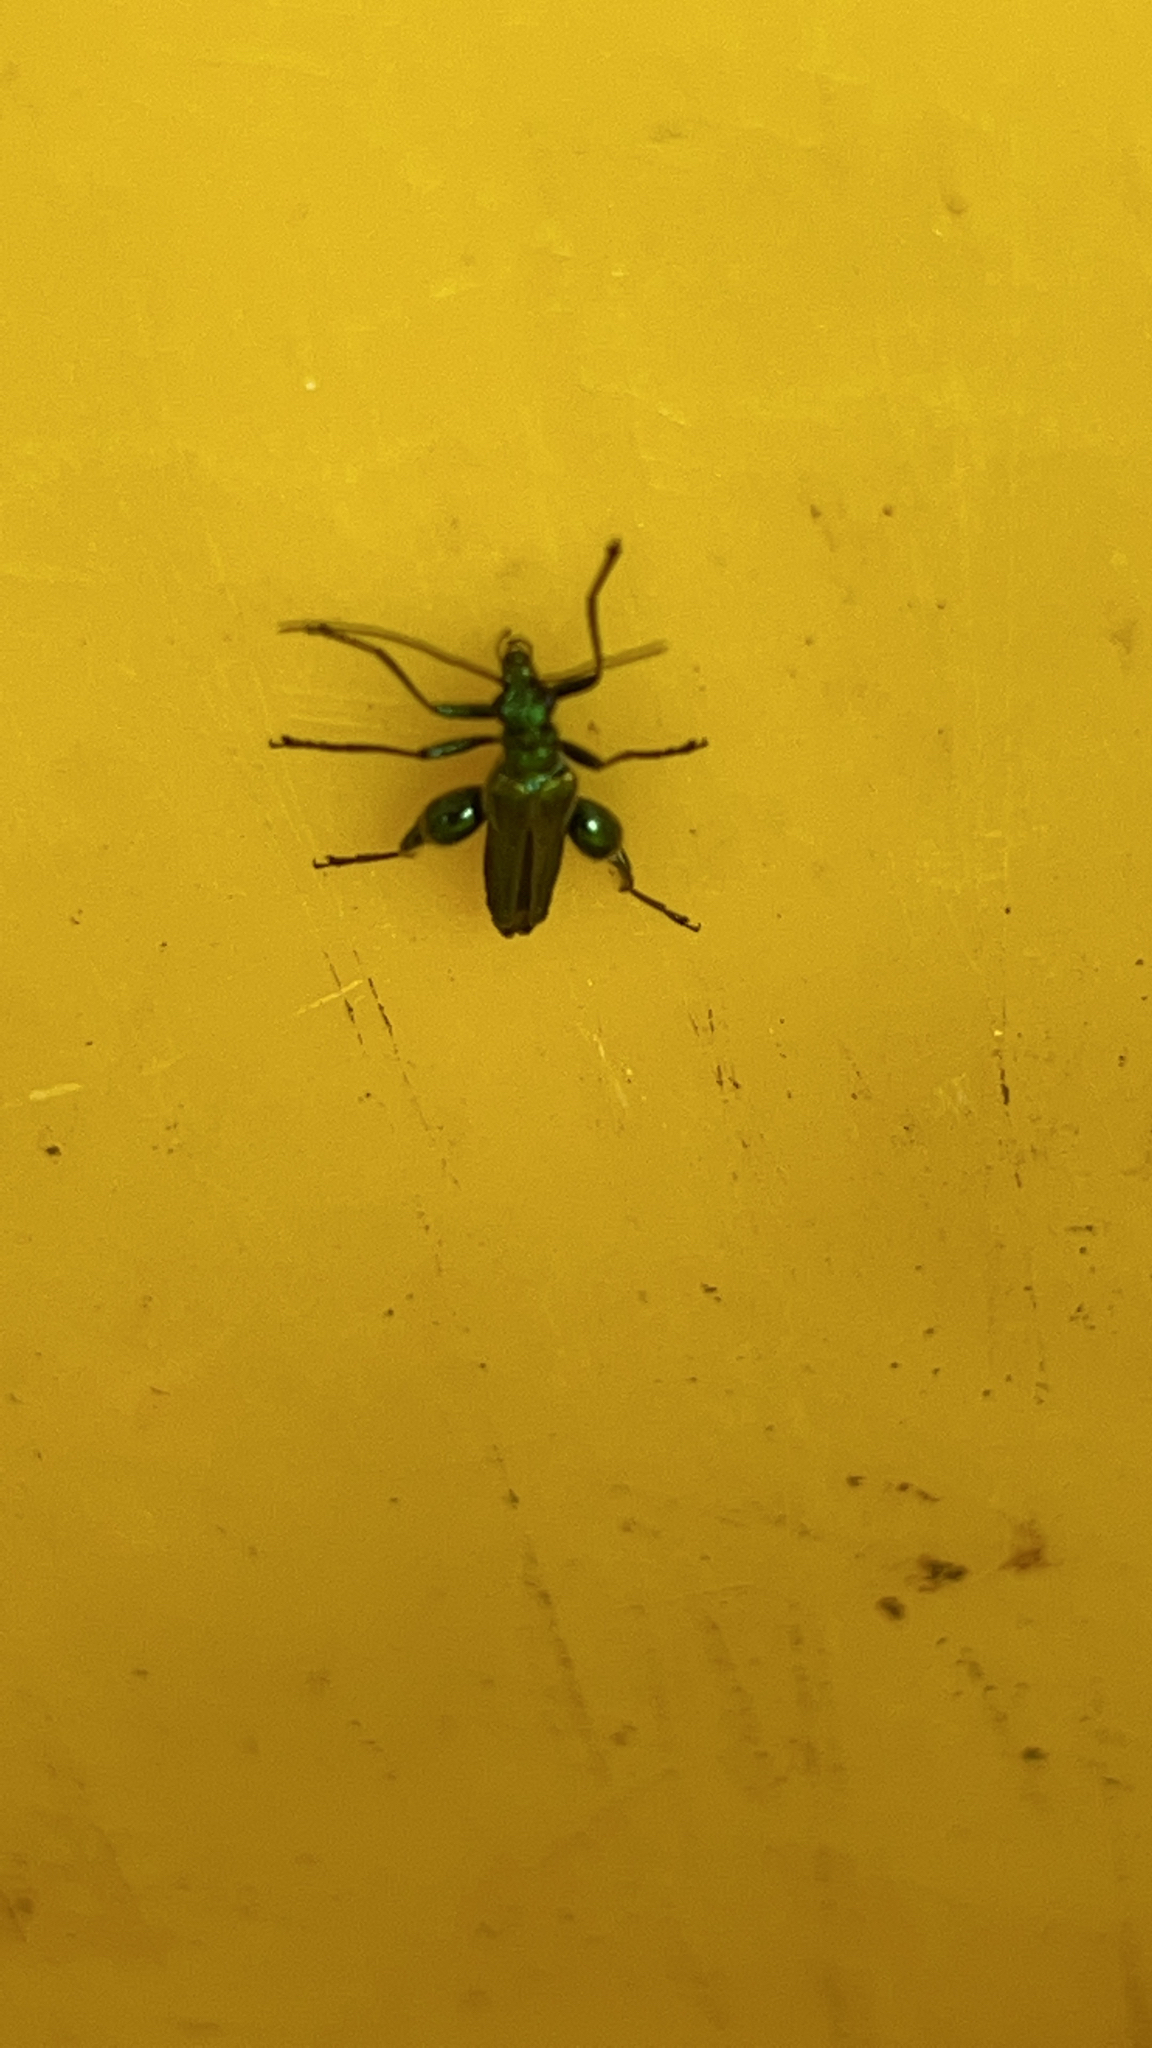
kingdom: Animalia
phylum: Arthropoda
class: Insecta
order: Coleoptera
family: Oedemeridae
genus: Oedemera
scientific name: Oedemera nobilis
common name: Swollen-thighed beetle
